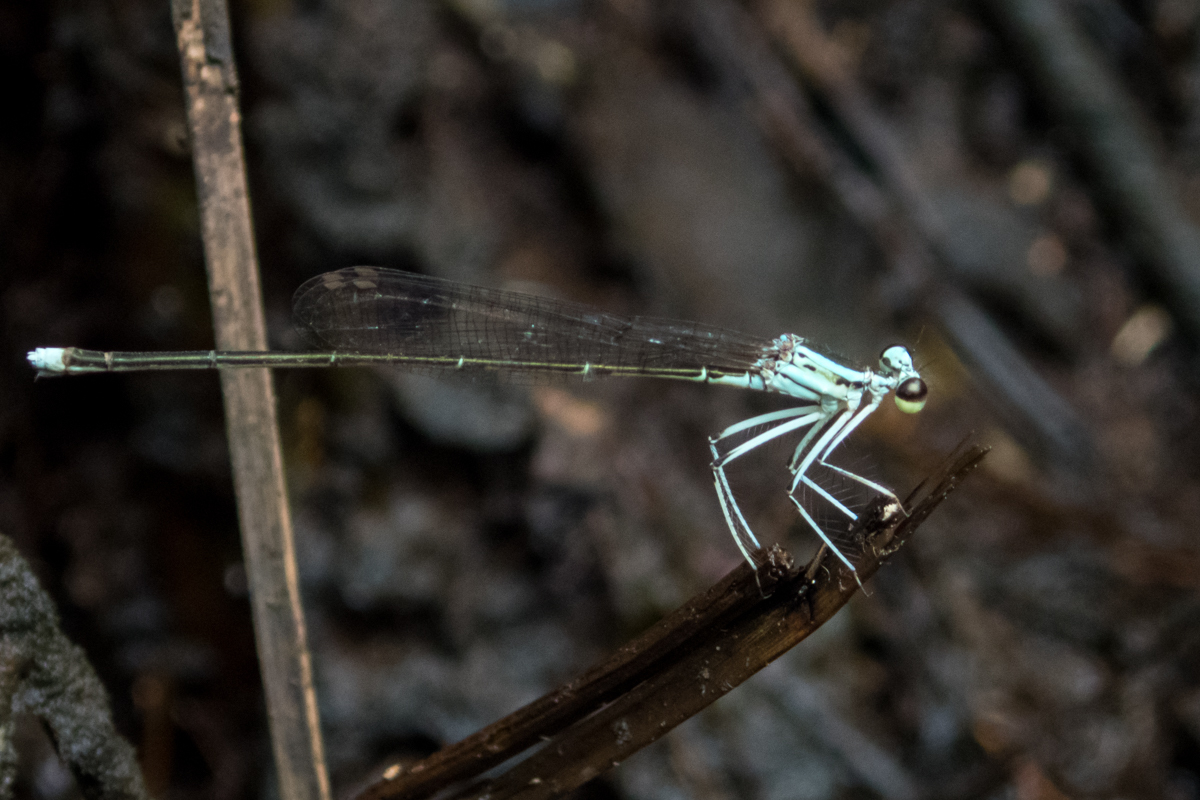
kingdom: Animalia
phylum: Arthropoda
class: Insecta
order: Odonata
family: Platycnemididae
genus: Pseudocopera
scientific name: Pseudocopera ciliata
